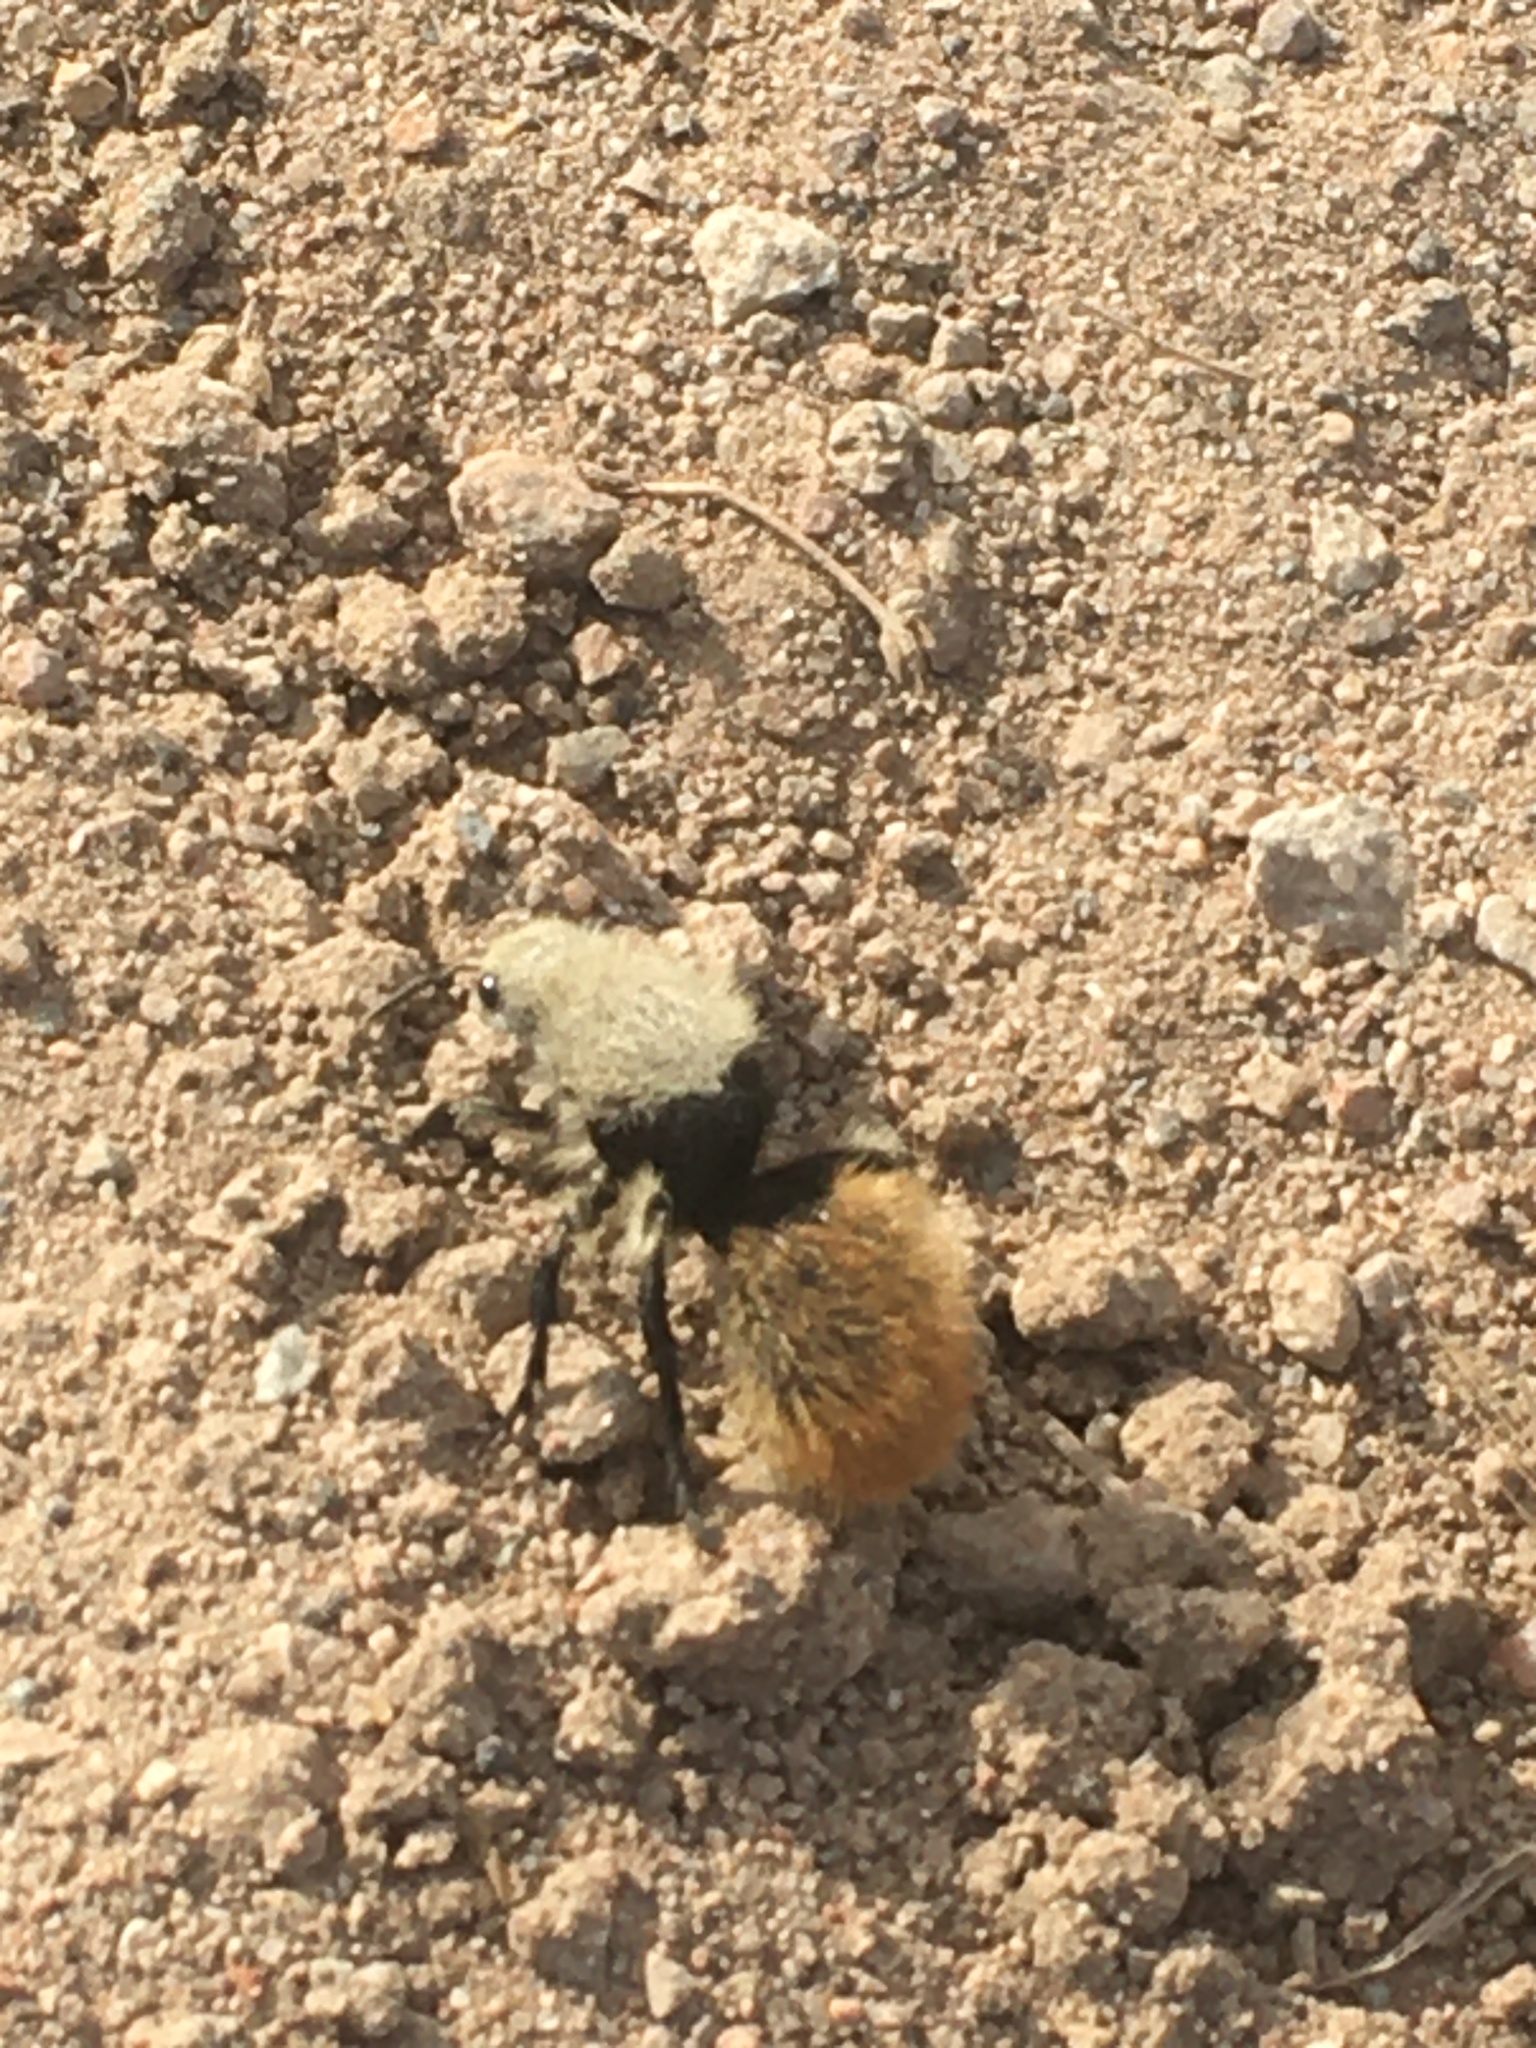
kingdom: Animalia
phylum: Arthropoda
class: Insecta
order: Hymenoptera
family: Mutillidae
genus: Dasymutilla
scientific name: Dasymutilla
